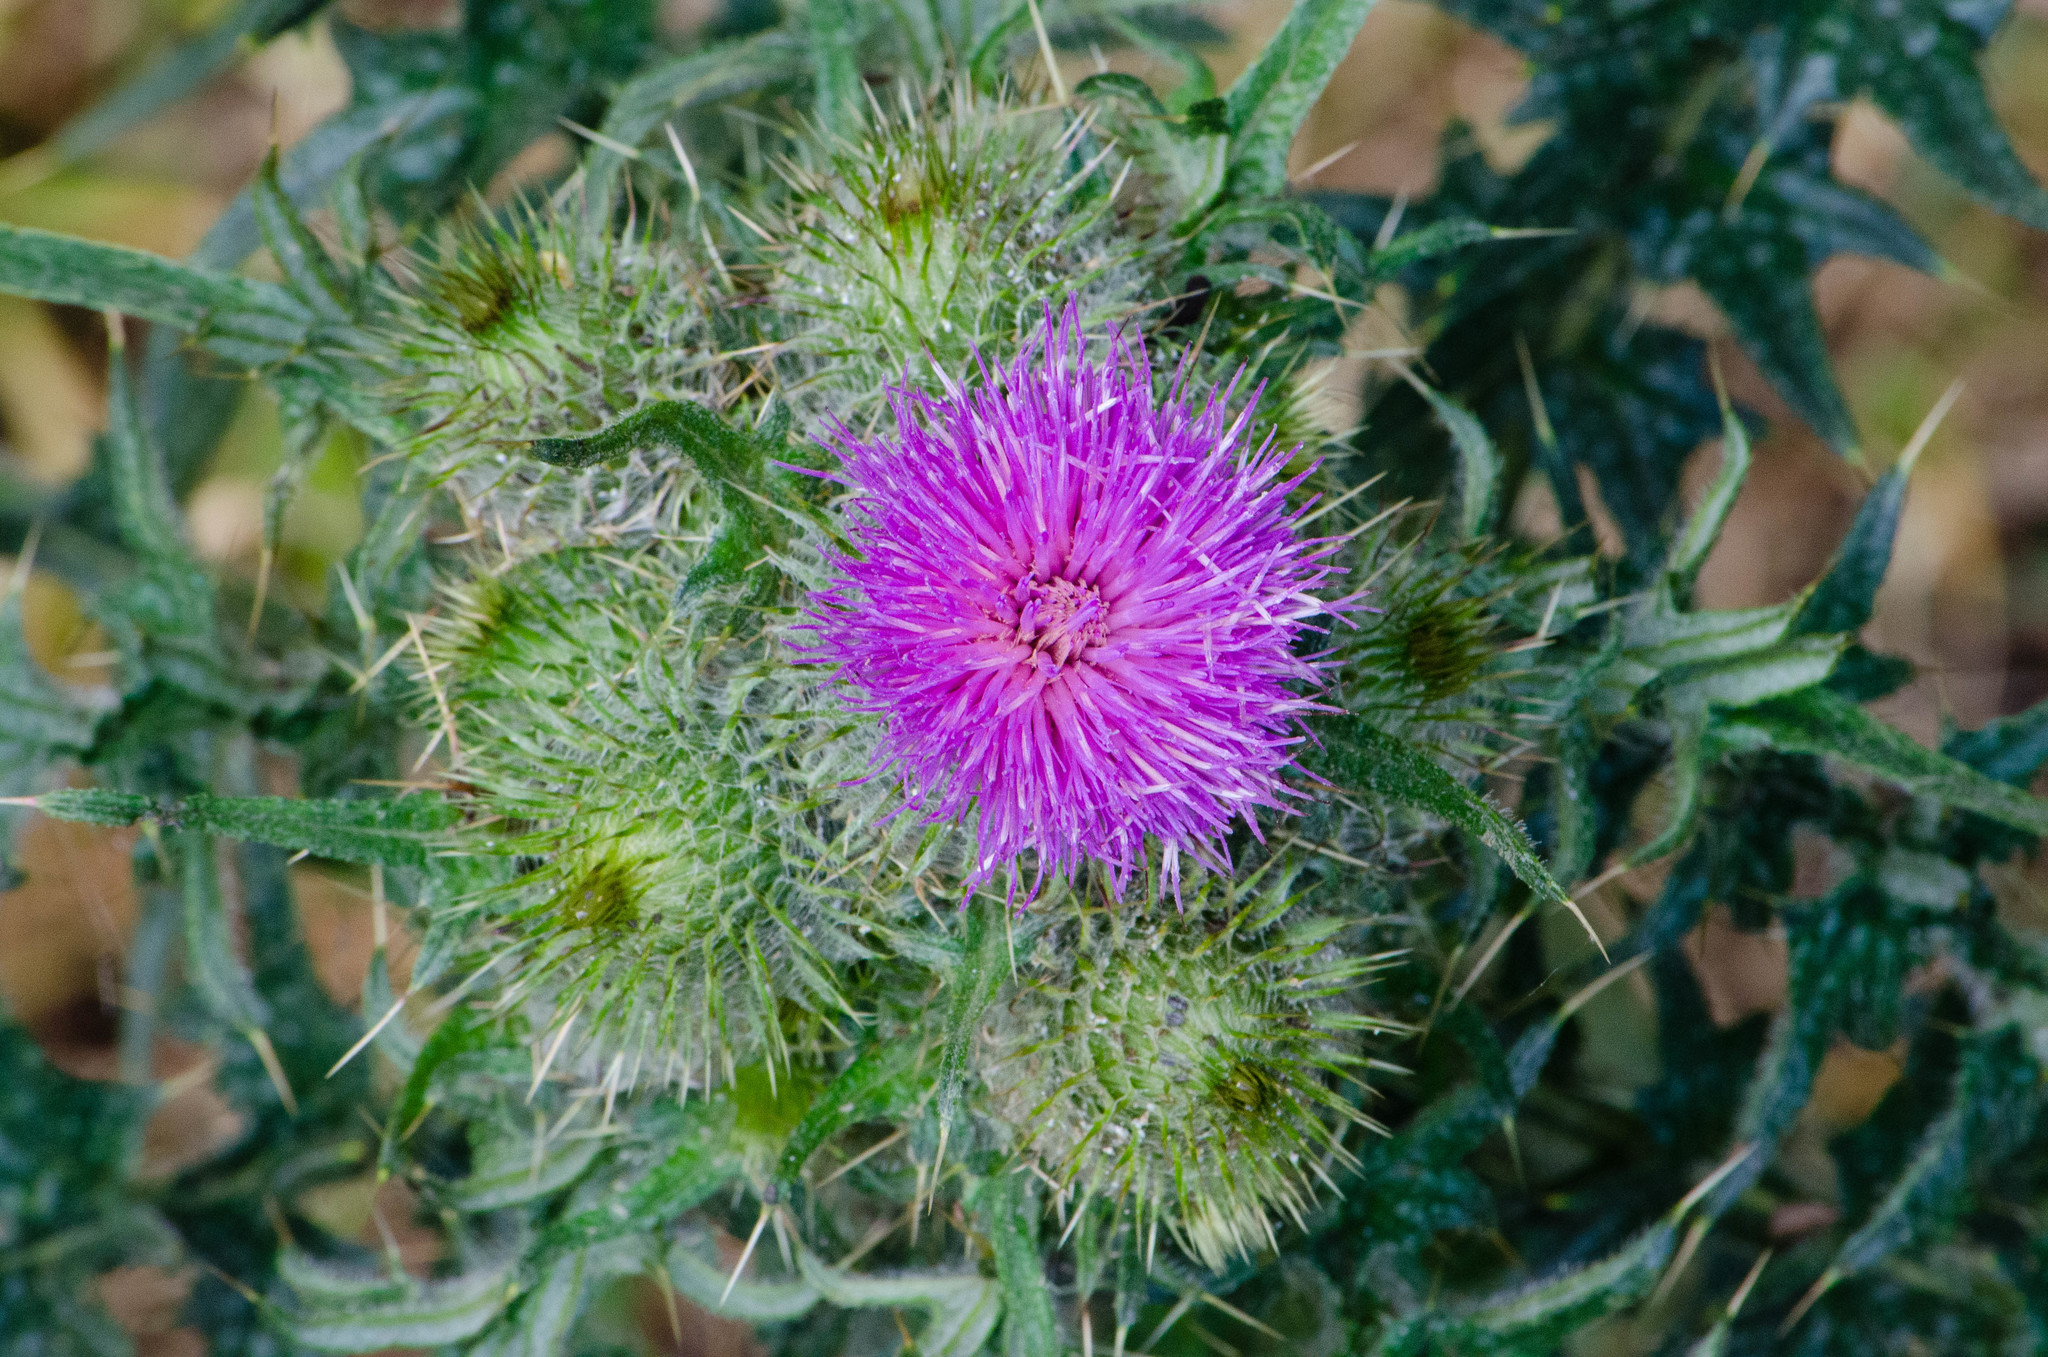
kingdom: Plantae
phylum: Tracheophyta
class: Magnoliopsida
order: Asterales
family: Asteraceae
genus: Cirsium
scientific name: Cirsium vulgare
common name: Bull thistle
